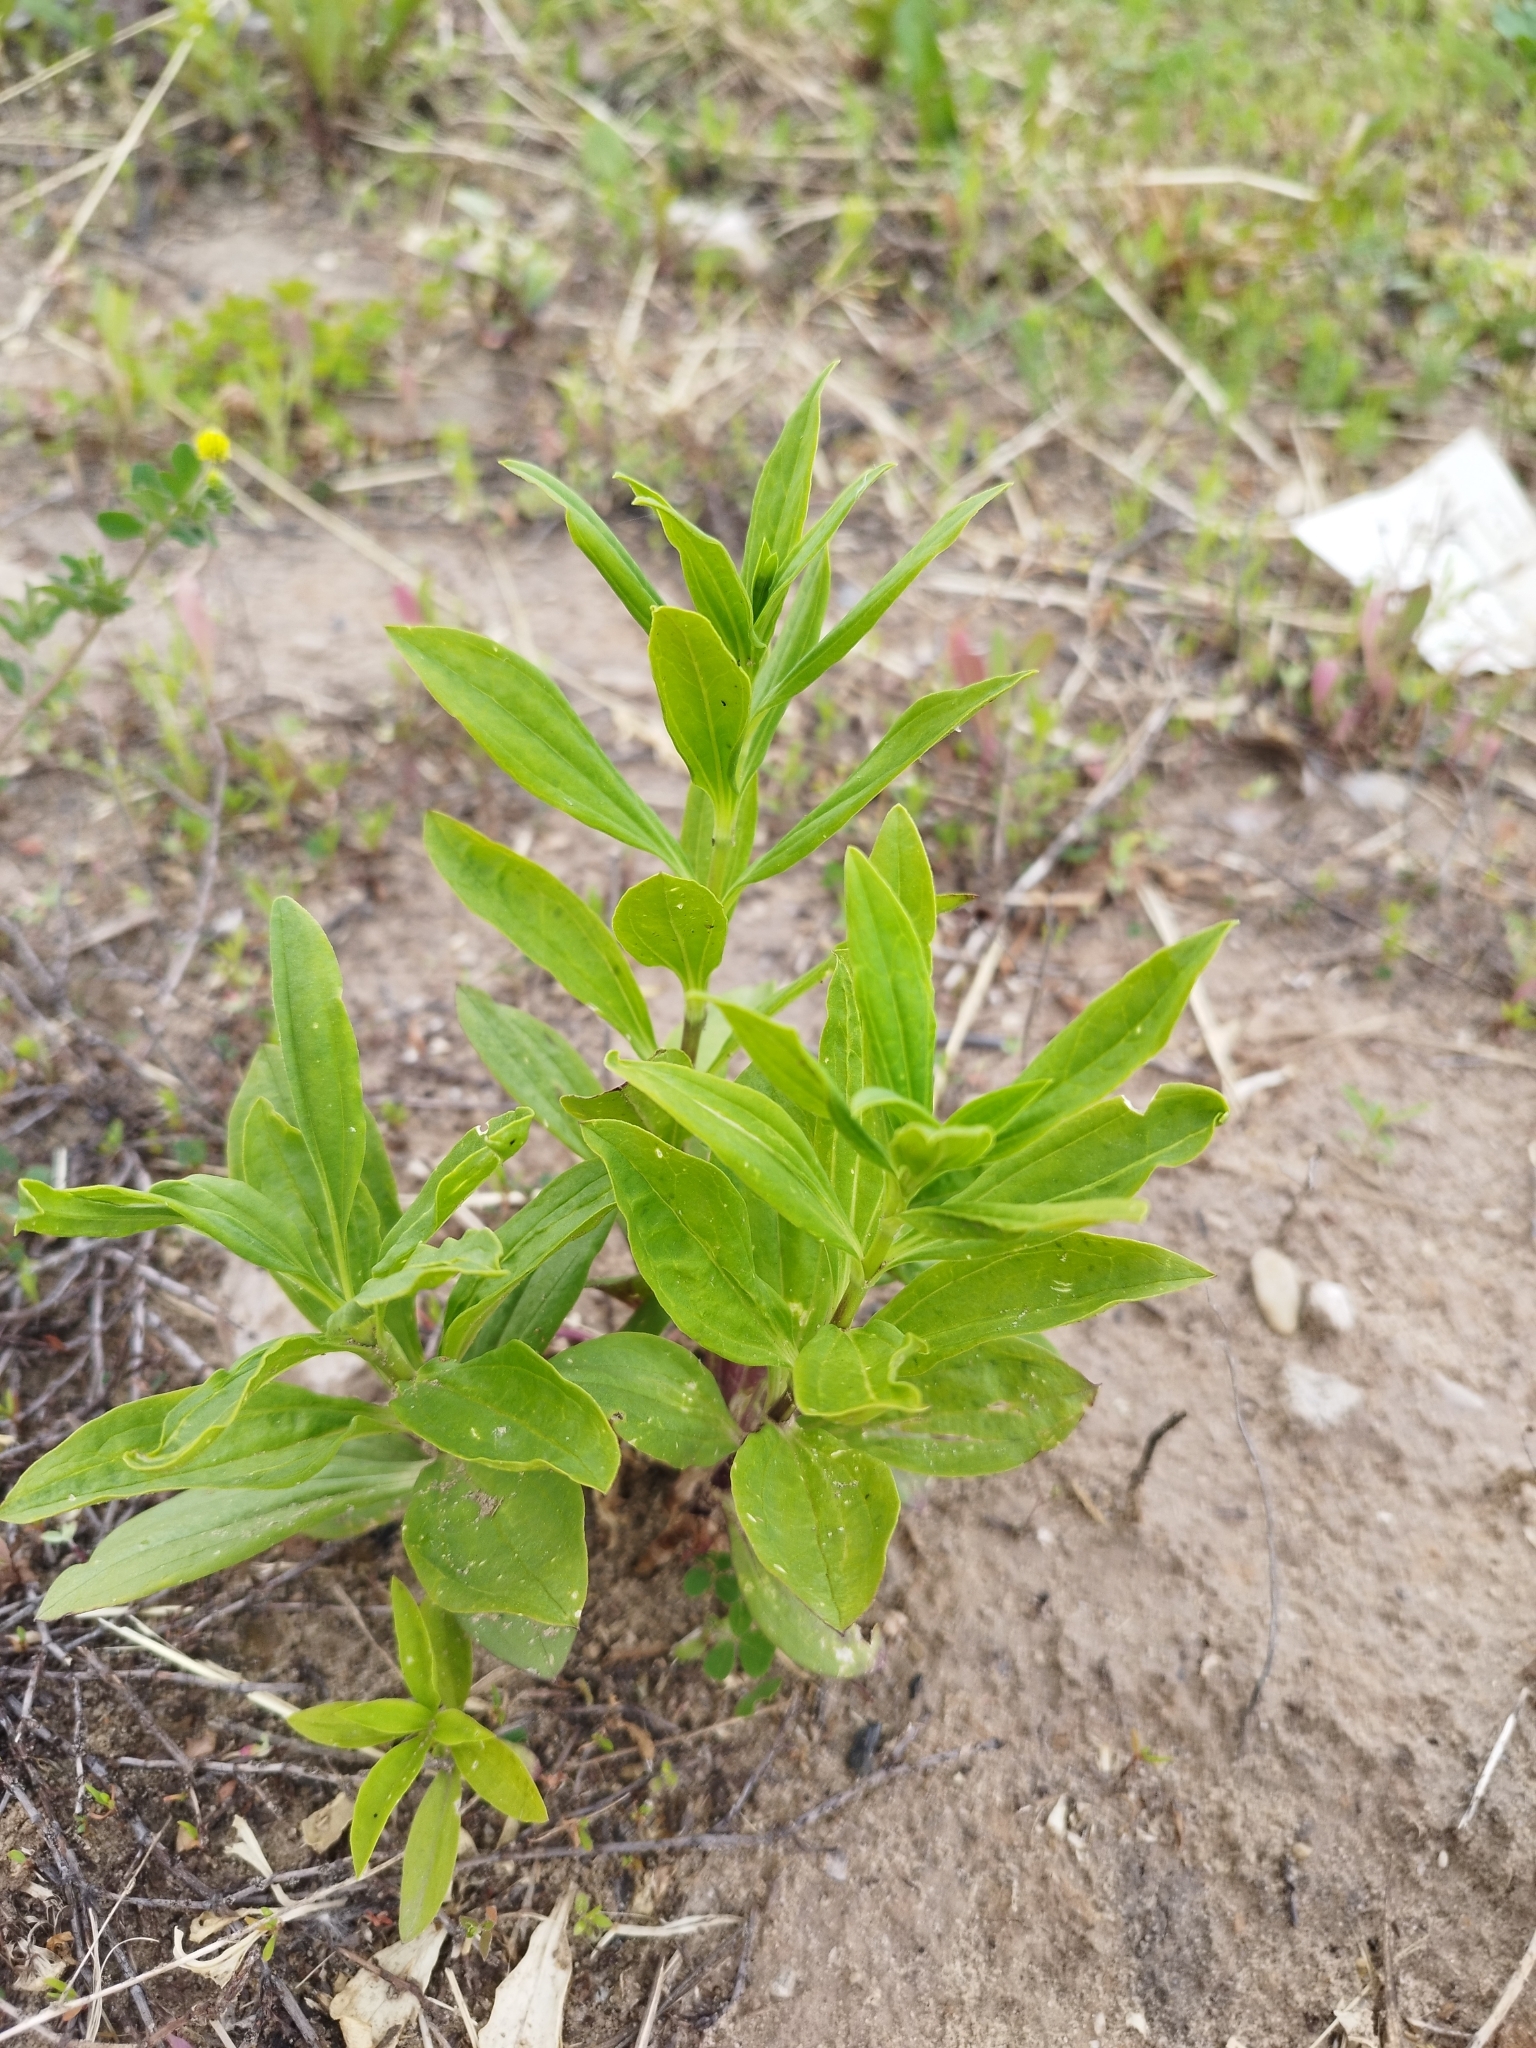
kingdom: Plantae
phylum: Tracheophyta
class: Magnoliopsida
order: Caryophyllales
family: Caryophyllaceae
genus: Saponaria
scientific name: Saponaria officinalis
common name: Soapwort
